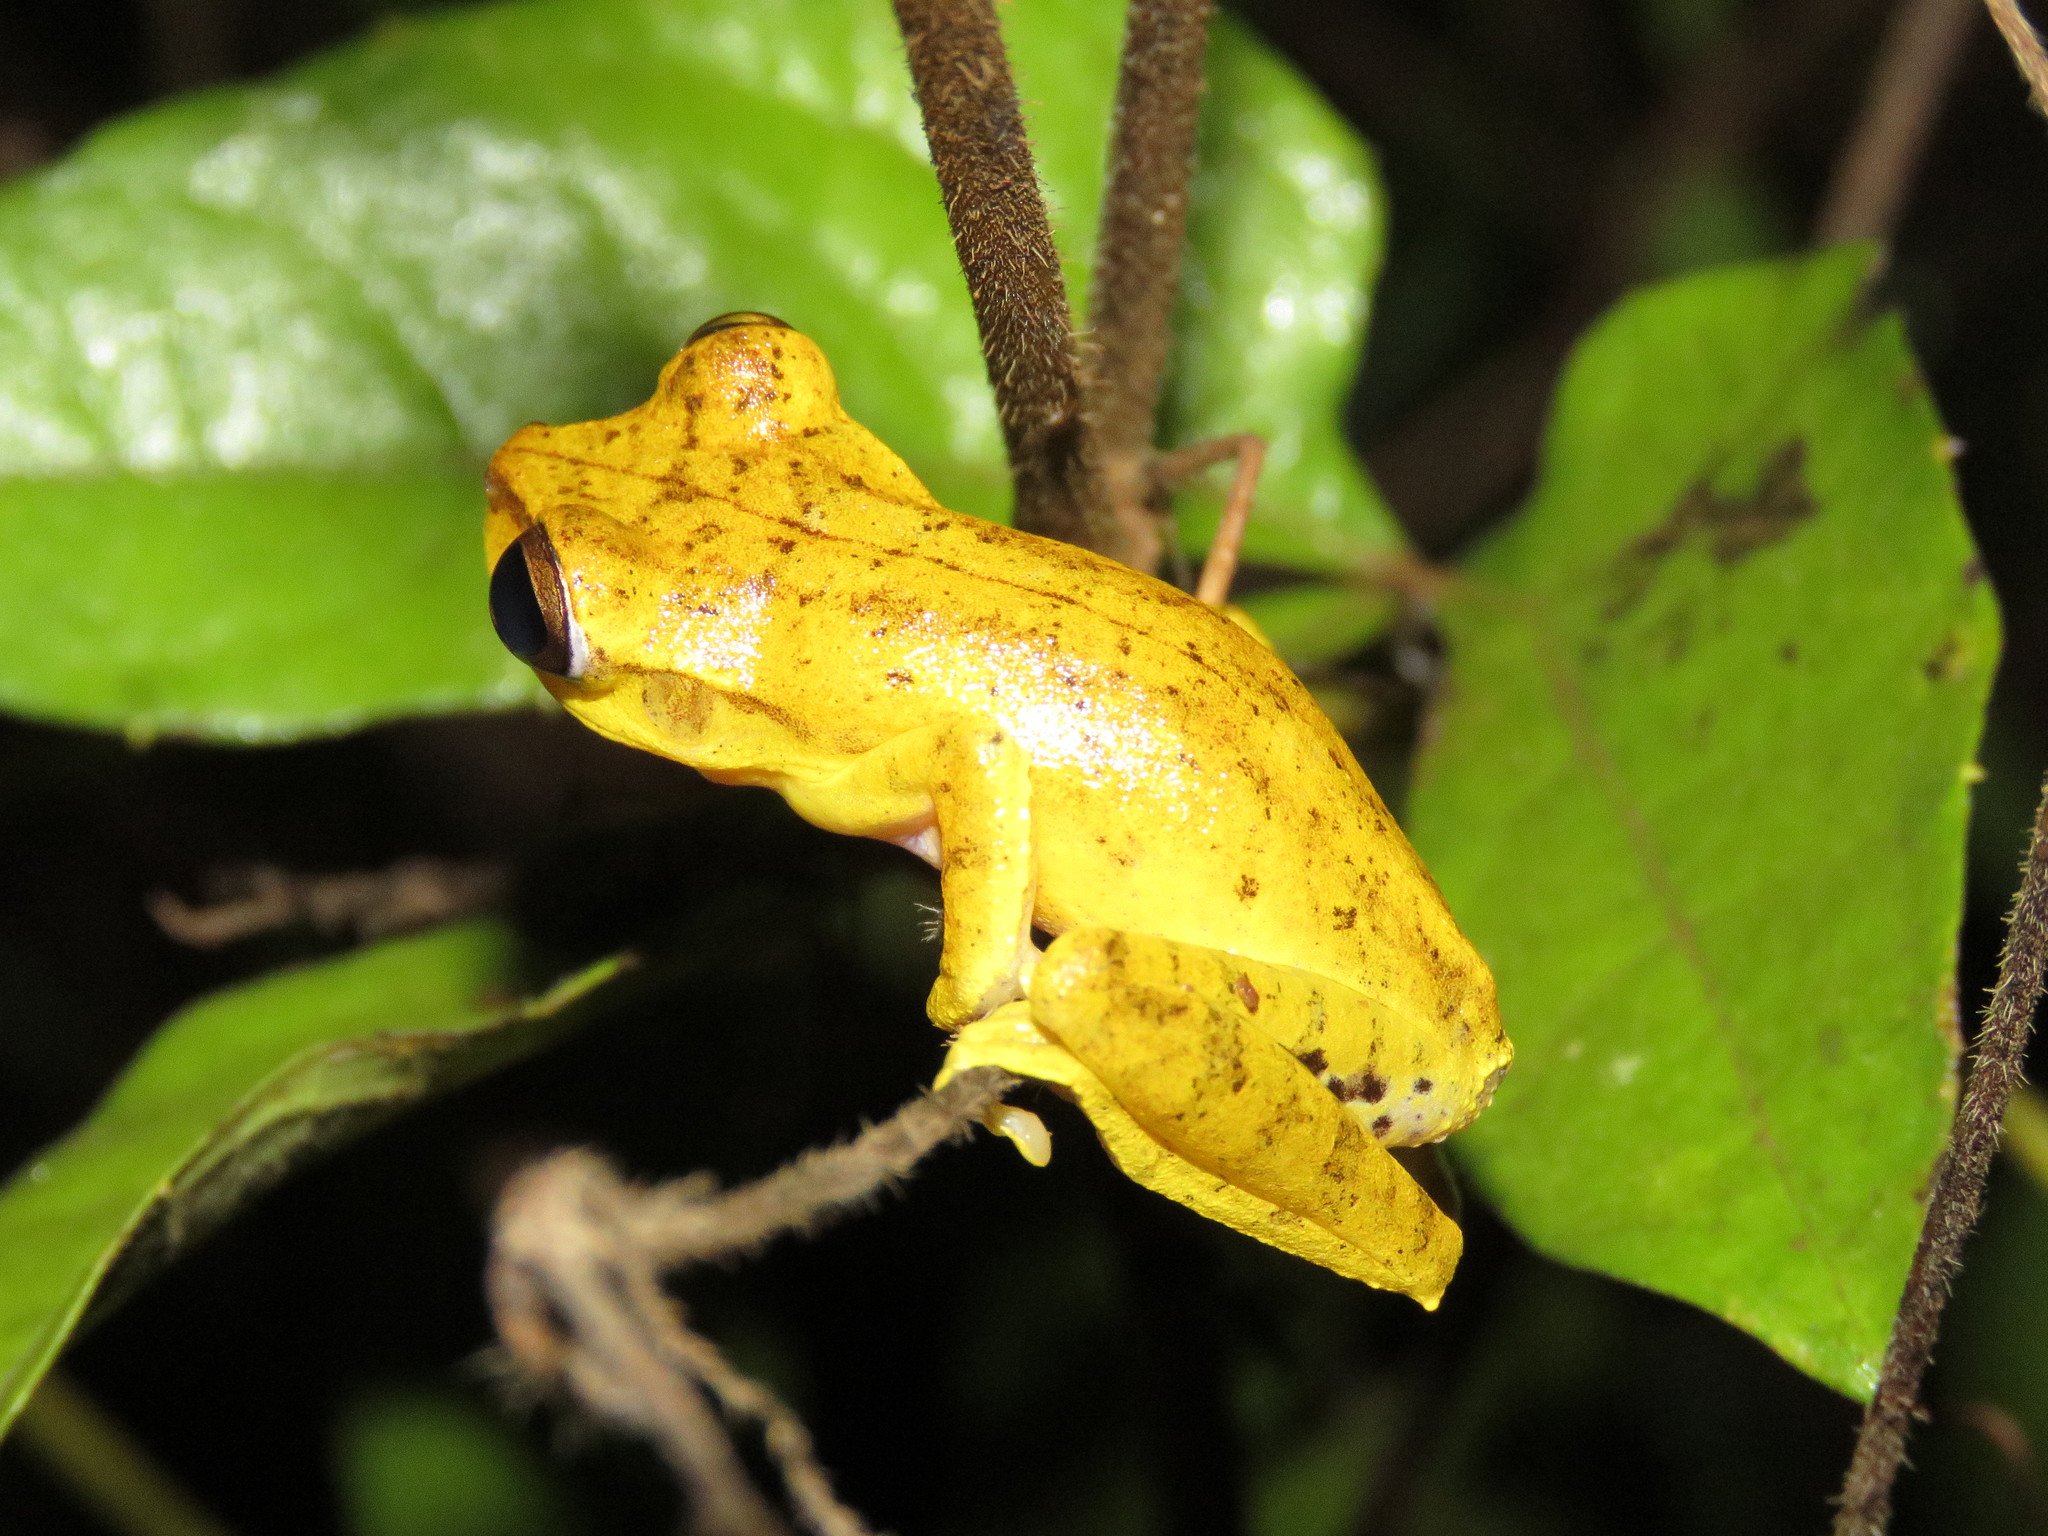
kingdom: Animalia
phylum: Chordata
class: Amphibia
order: Anura
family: Hylidae
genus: Boana
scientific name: Boana steinbachi
